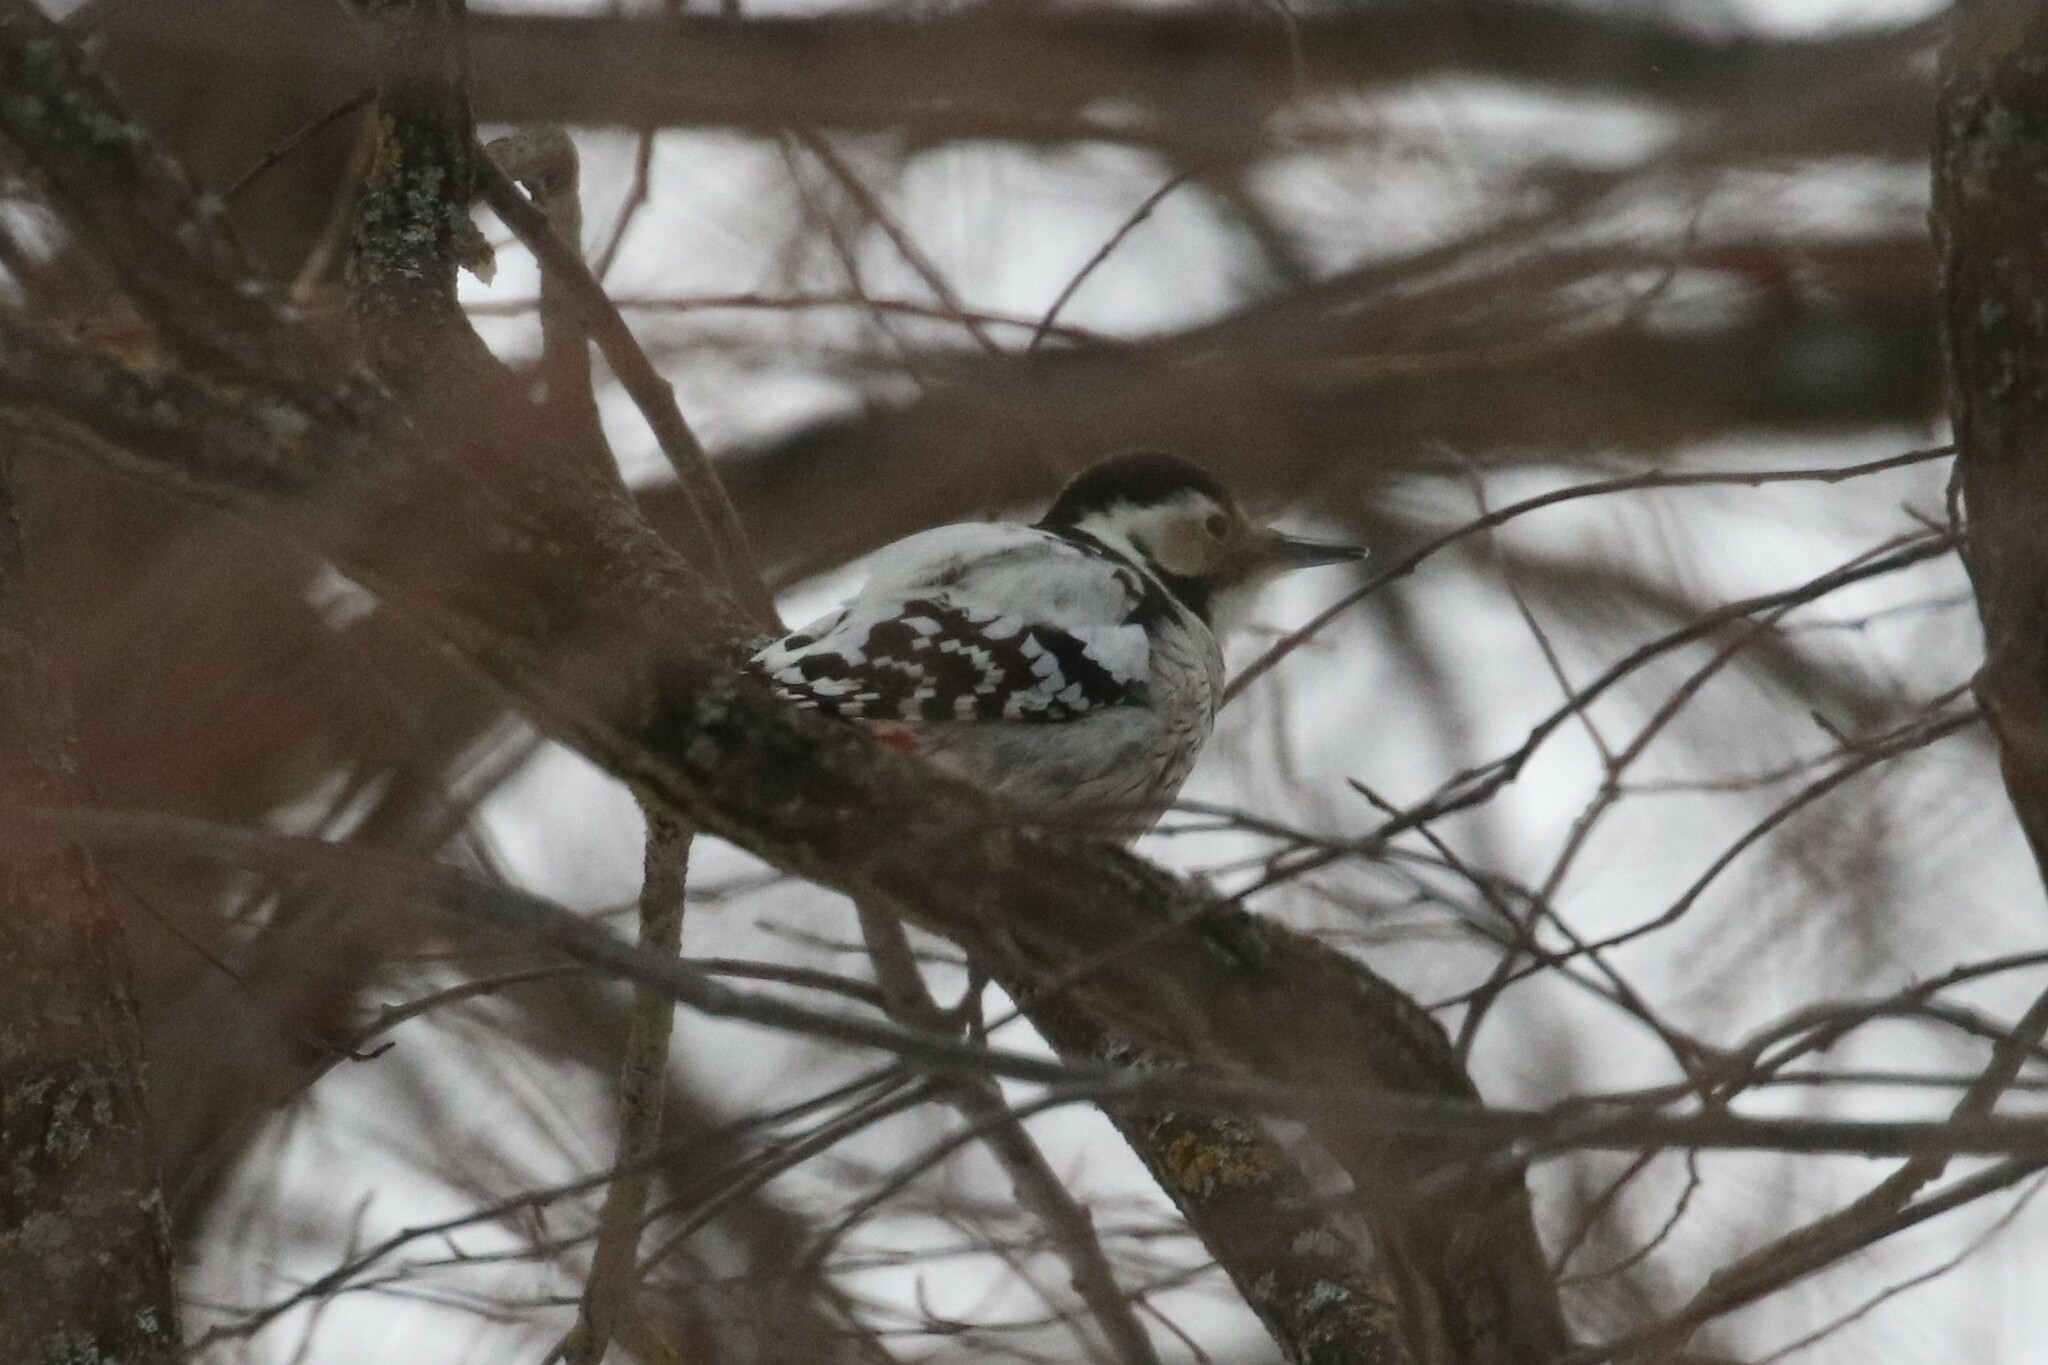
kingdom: Animalia
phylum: Chordata
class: Aves
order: Piciformes
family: Picidae
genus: Dendrocopos
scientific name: Dendrocopos leucotos
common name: White-backed woodpecker
